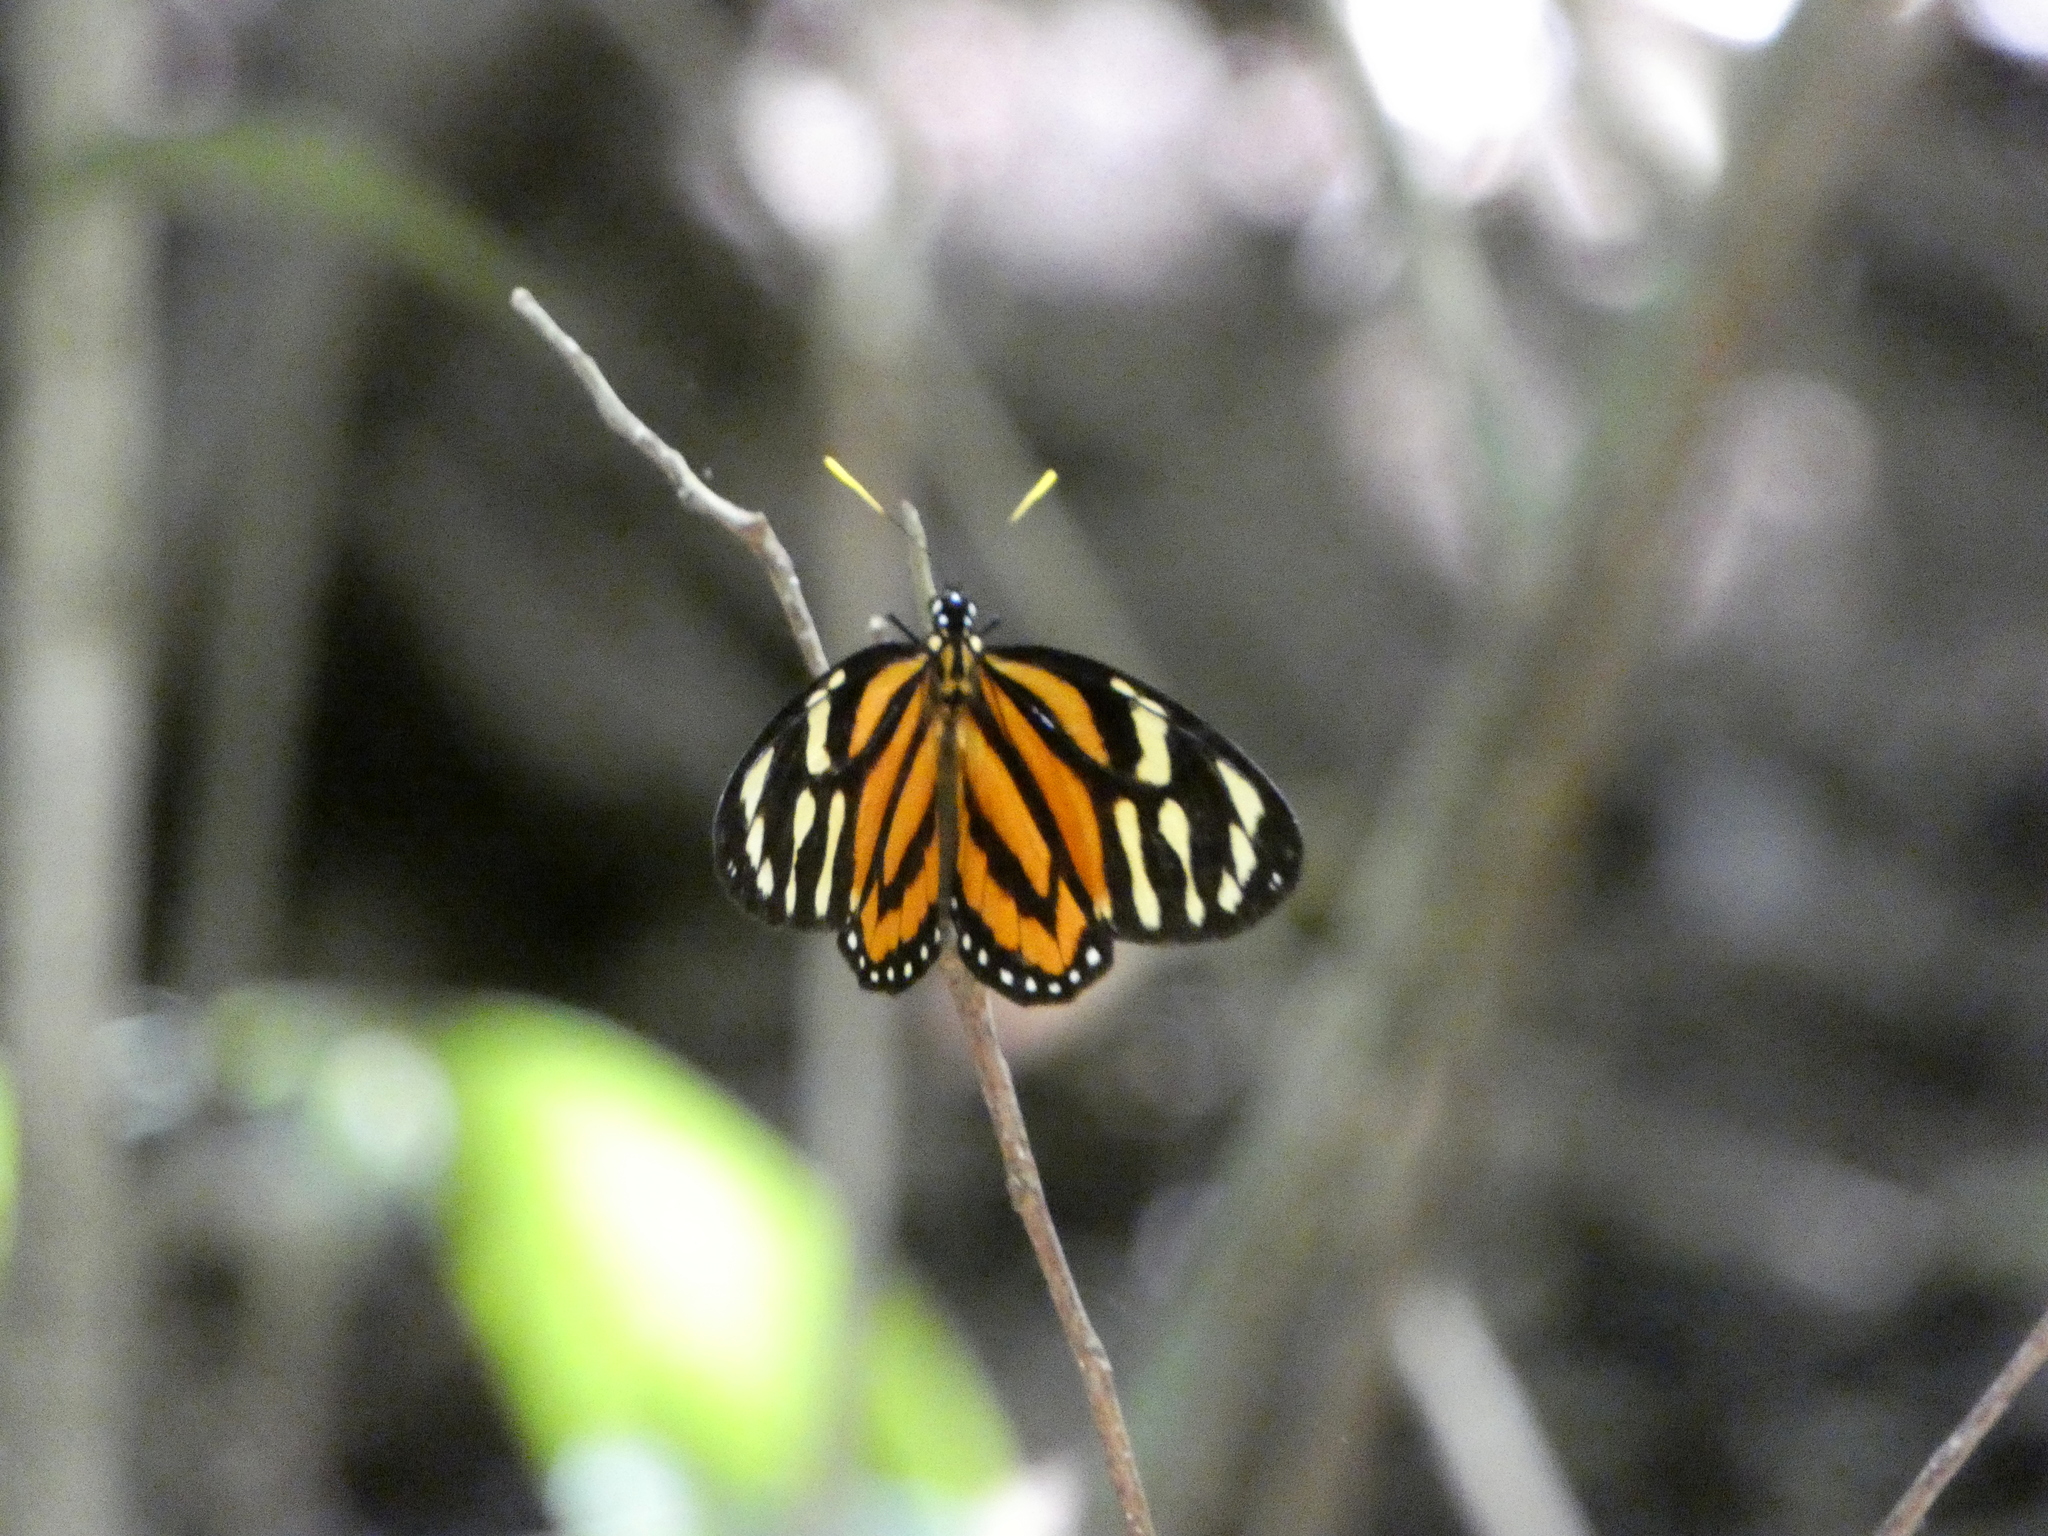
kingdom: Animalia
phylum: Arthropoda
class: Insecta
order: Lepidoptera
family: Nymphalidae
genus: Lycorea
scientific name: Lycorea cleobaea
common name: Tiger mimic-queen
